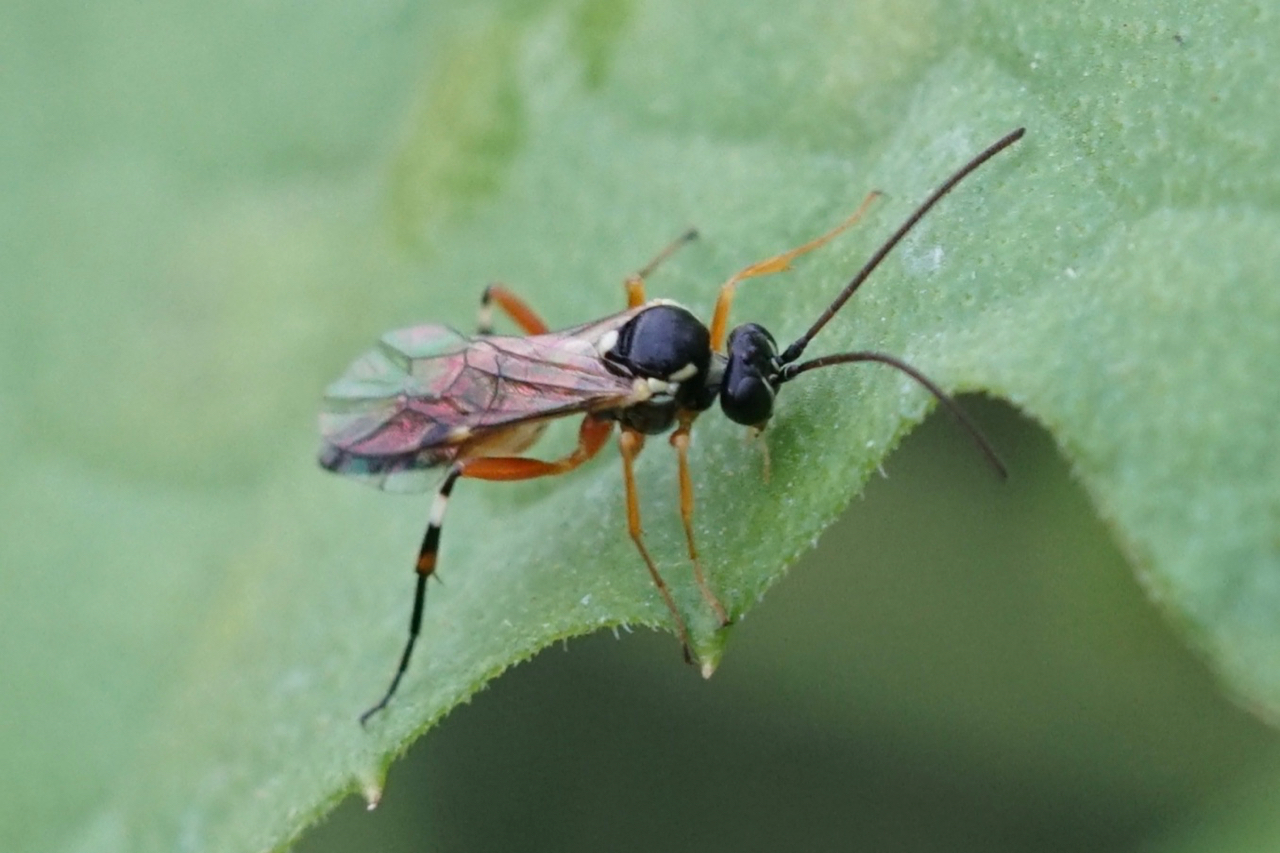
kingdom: Animalia
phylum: Arthropoda
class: Insecta
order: Hymenoptera
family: Ichneumonidae
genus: Diplazon
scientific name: Diplazon laetatorius
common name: Parasitoid wasp
